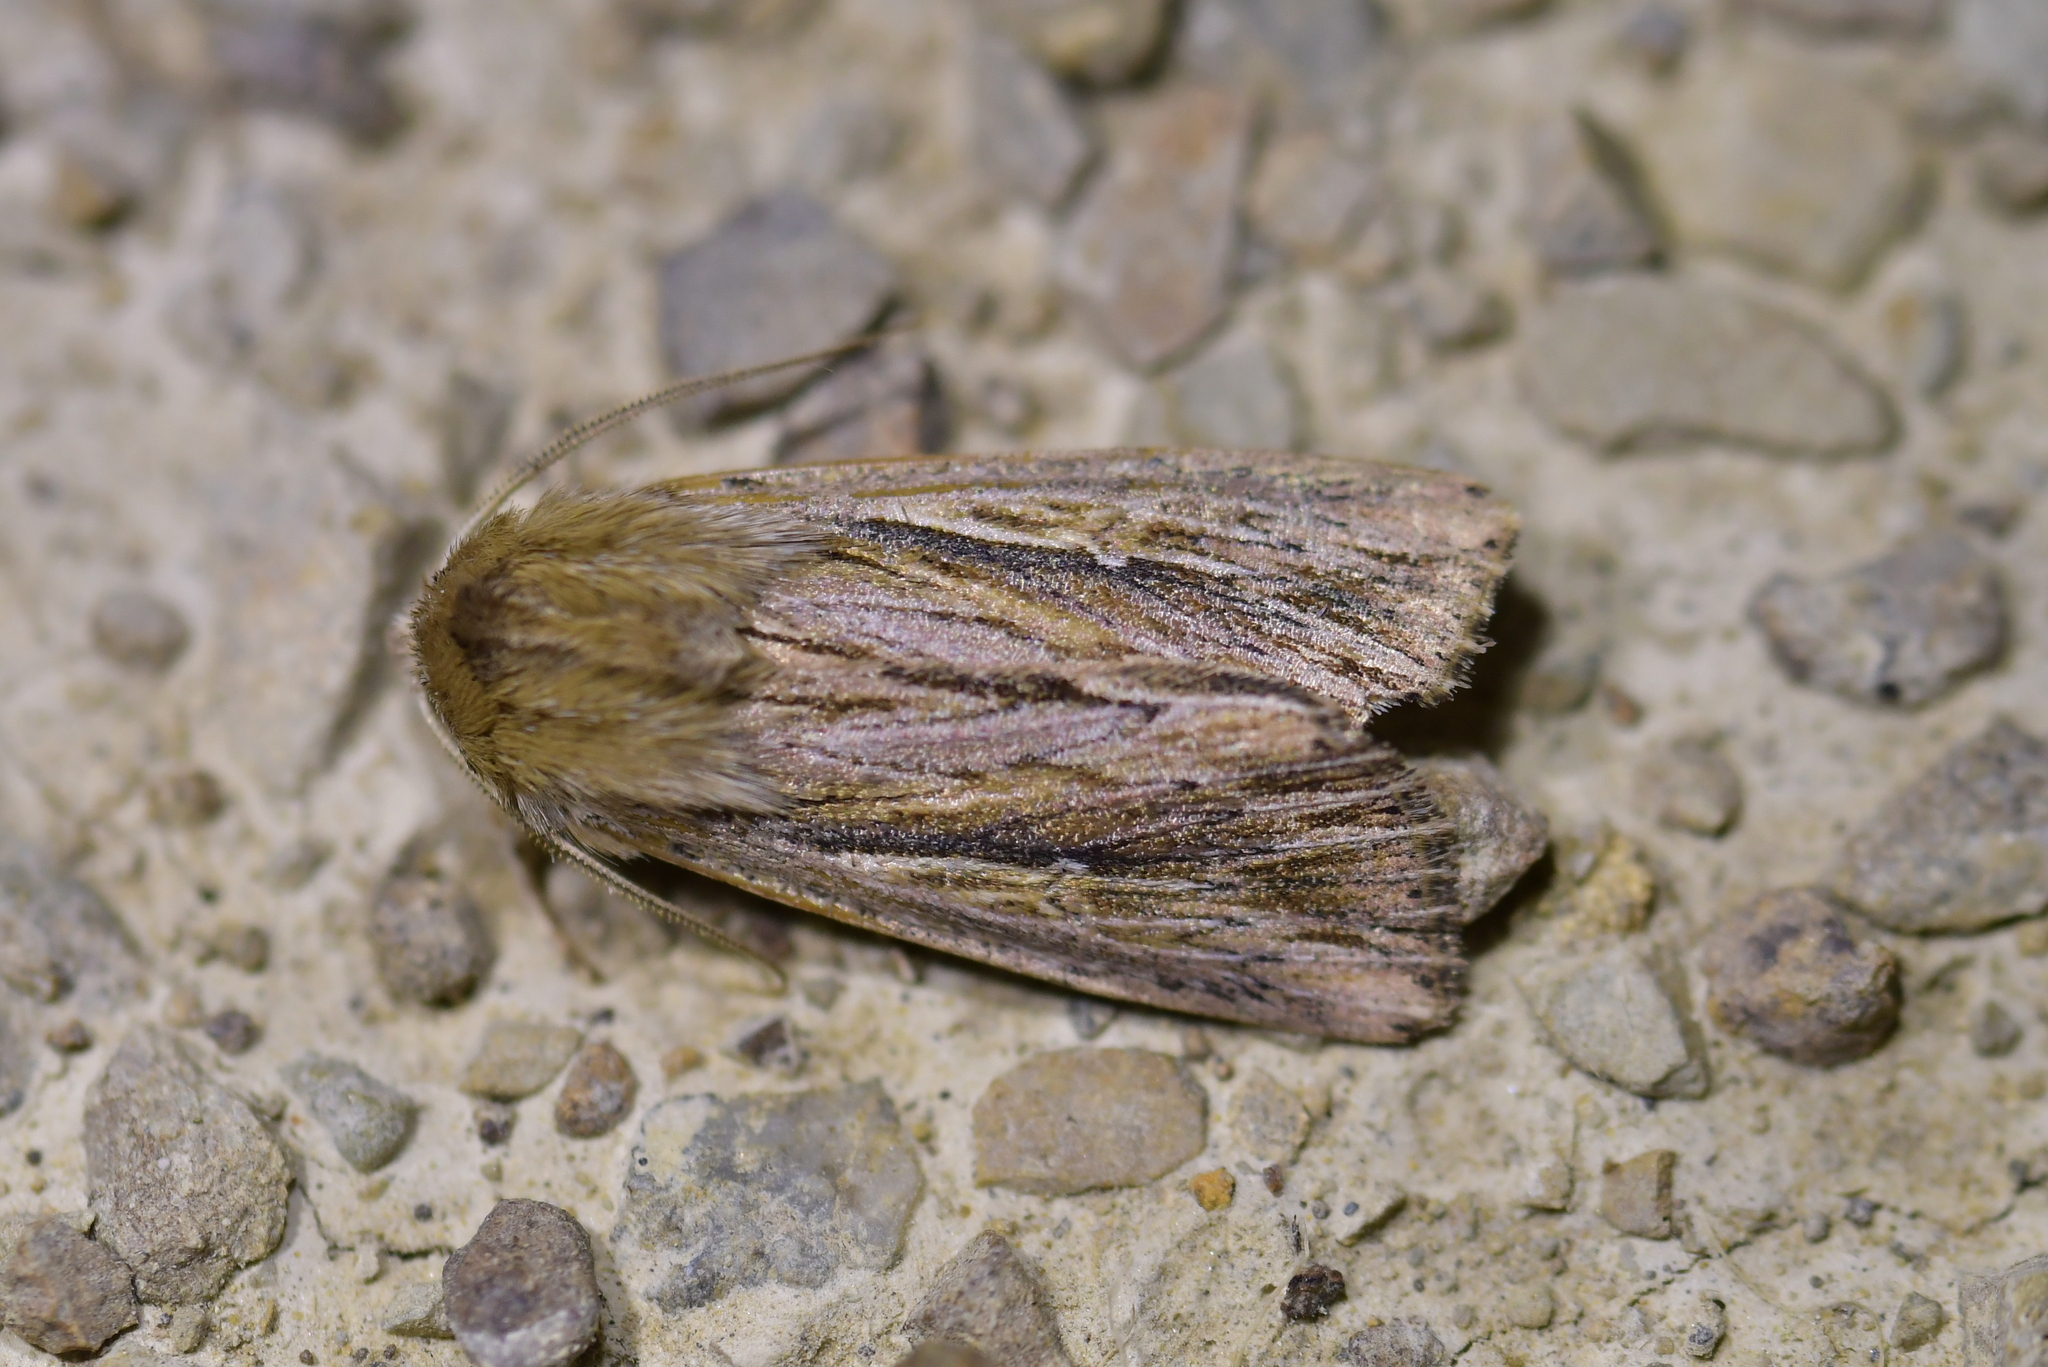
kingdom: Animalia
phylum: Arthropoda
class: Insecta
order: Lepidoptera
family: Noctuidae
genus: Persectania
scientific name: Persectania aversa
